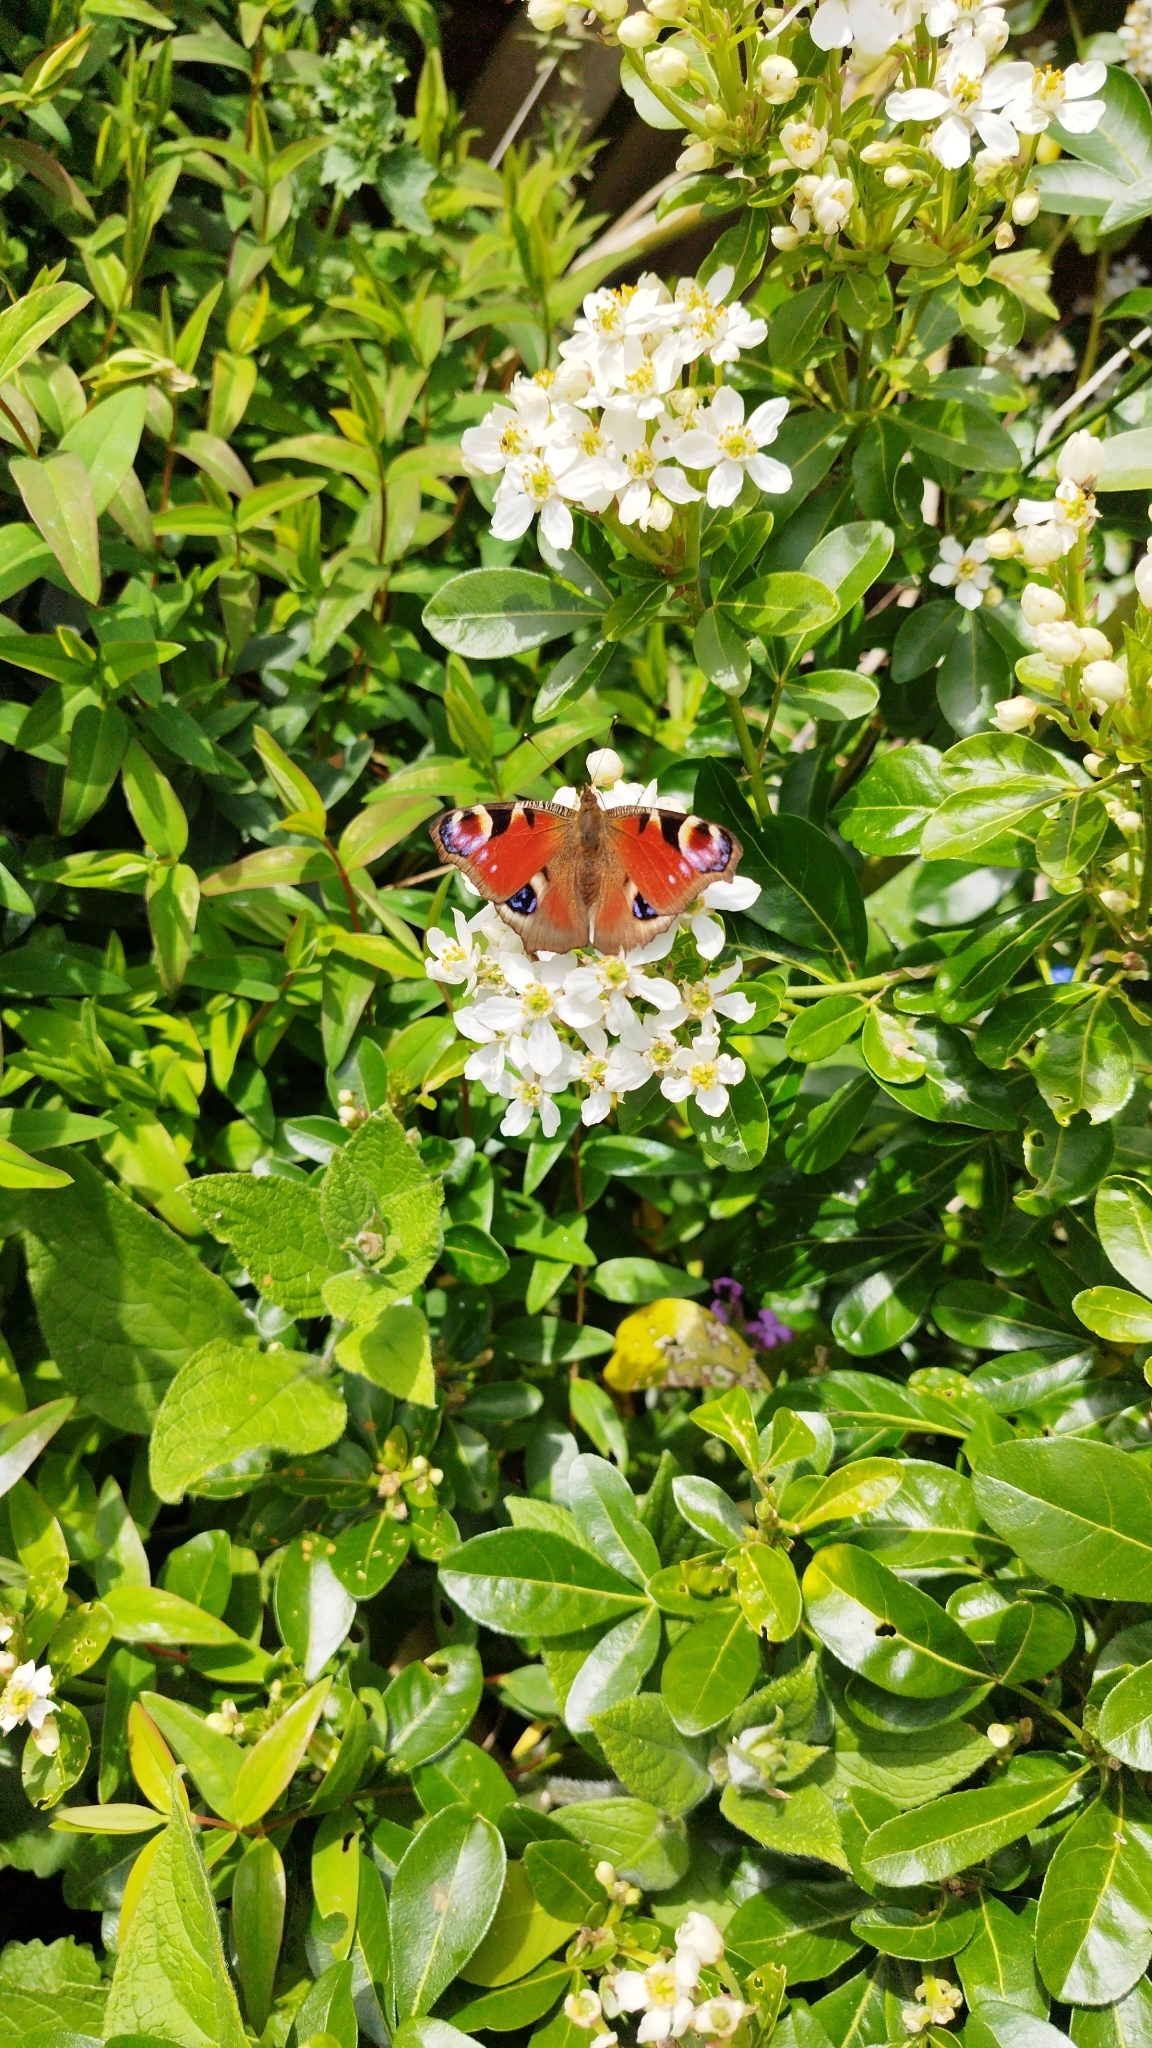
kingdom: Animalia
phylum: Arthropoda
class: Insecta
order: Lepidoptera
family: Nymphalidae
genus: Aglais
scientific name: Aglais io
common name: Peacock
